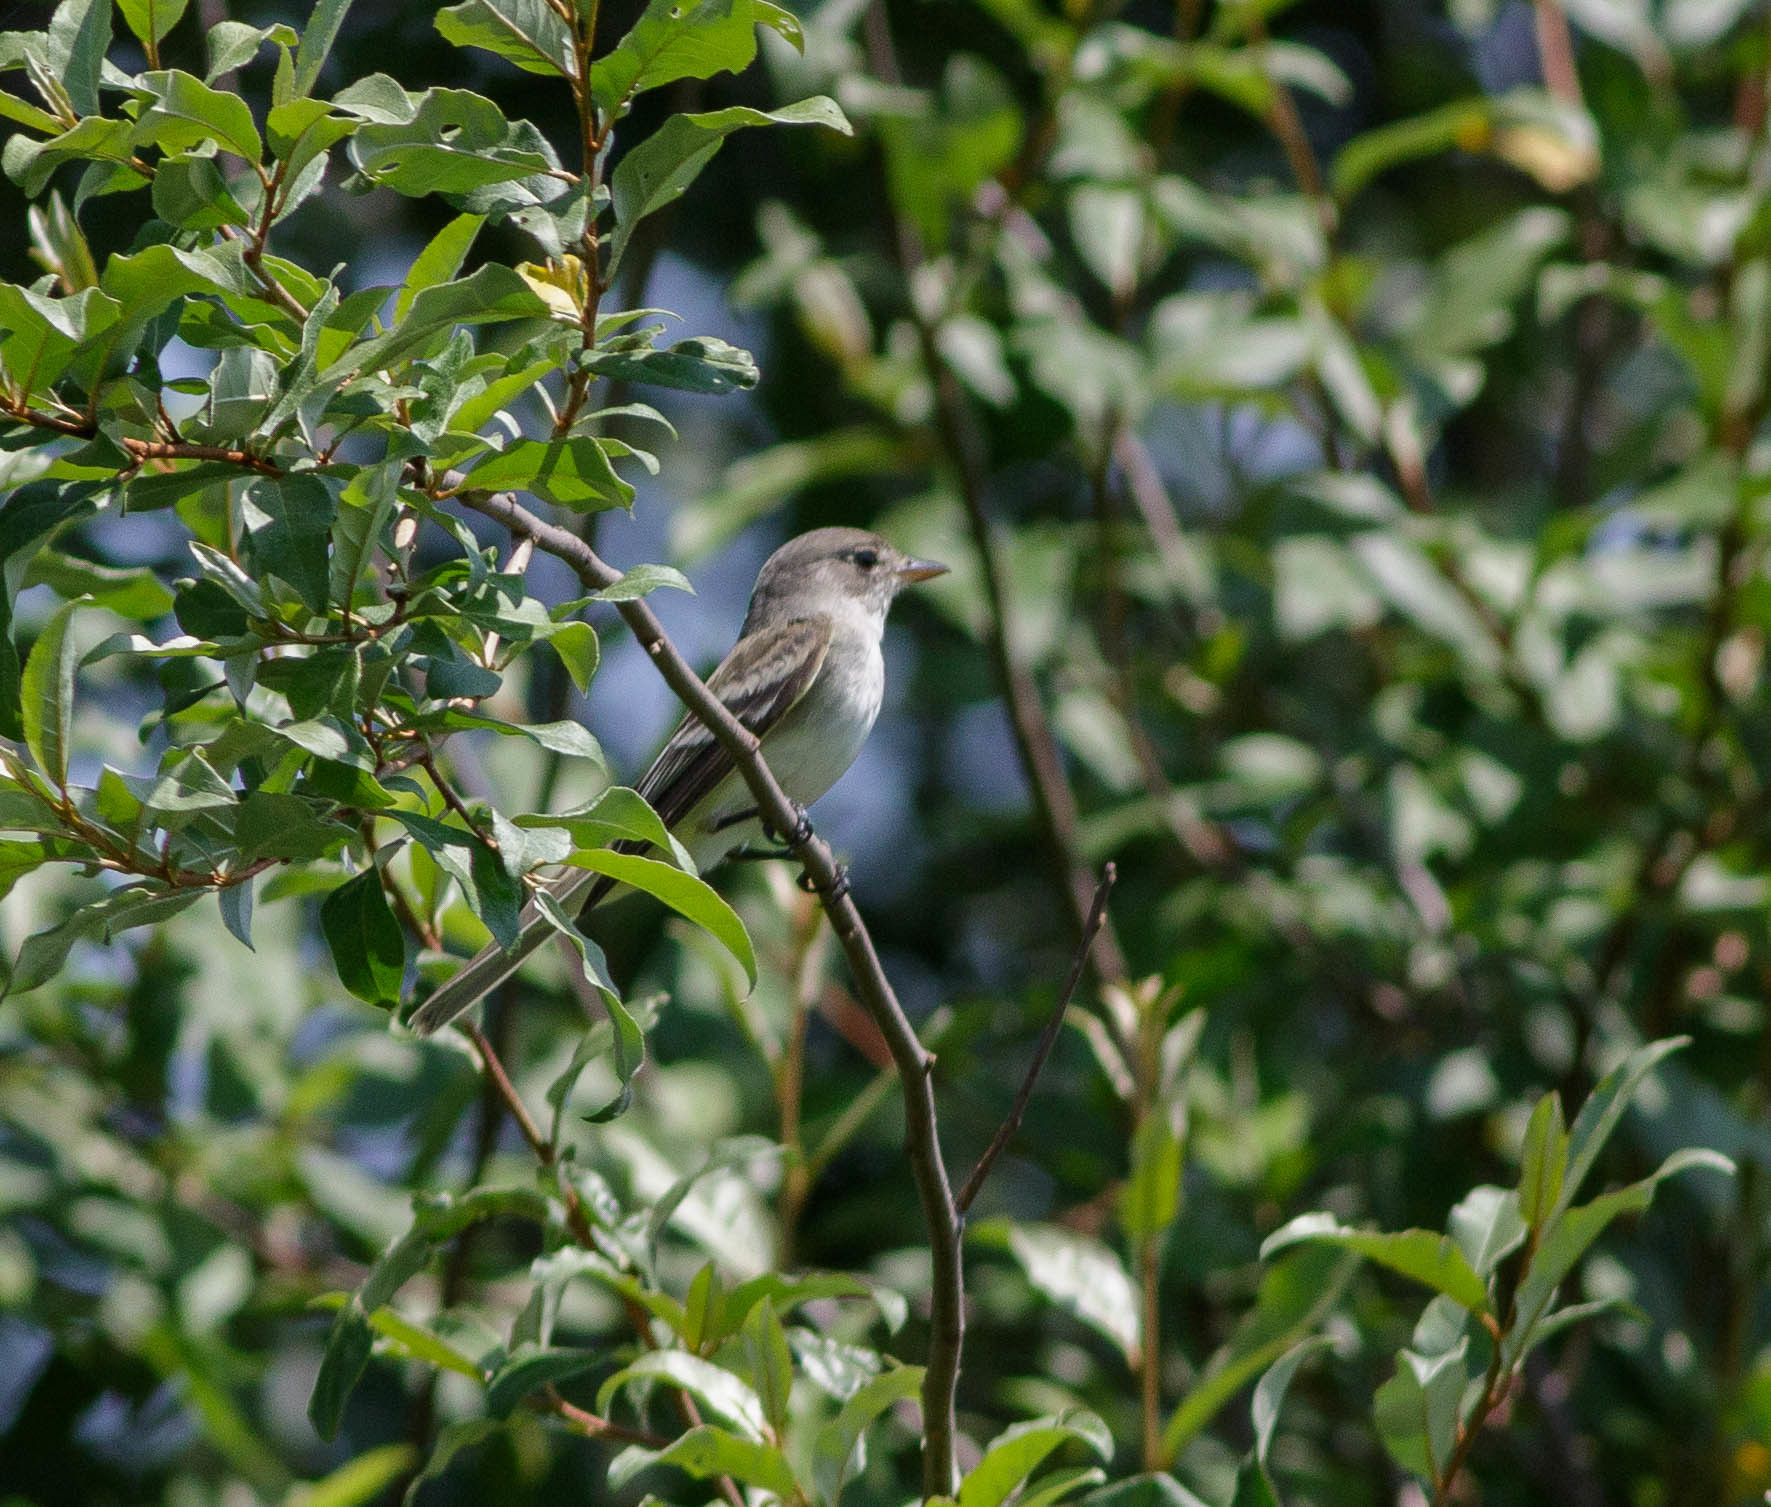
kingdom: Animalia
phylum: Chordata
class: Aves
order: Passeriformes
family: Tyrannidae
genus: Empidonax
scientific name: Empidonax traillii
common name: Willow flycatcher
